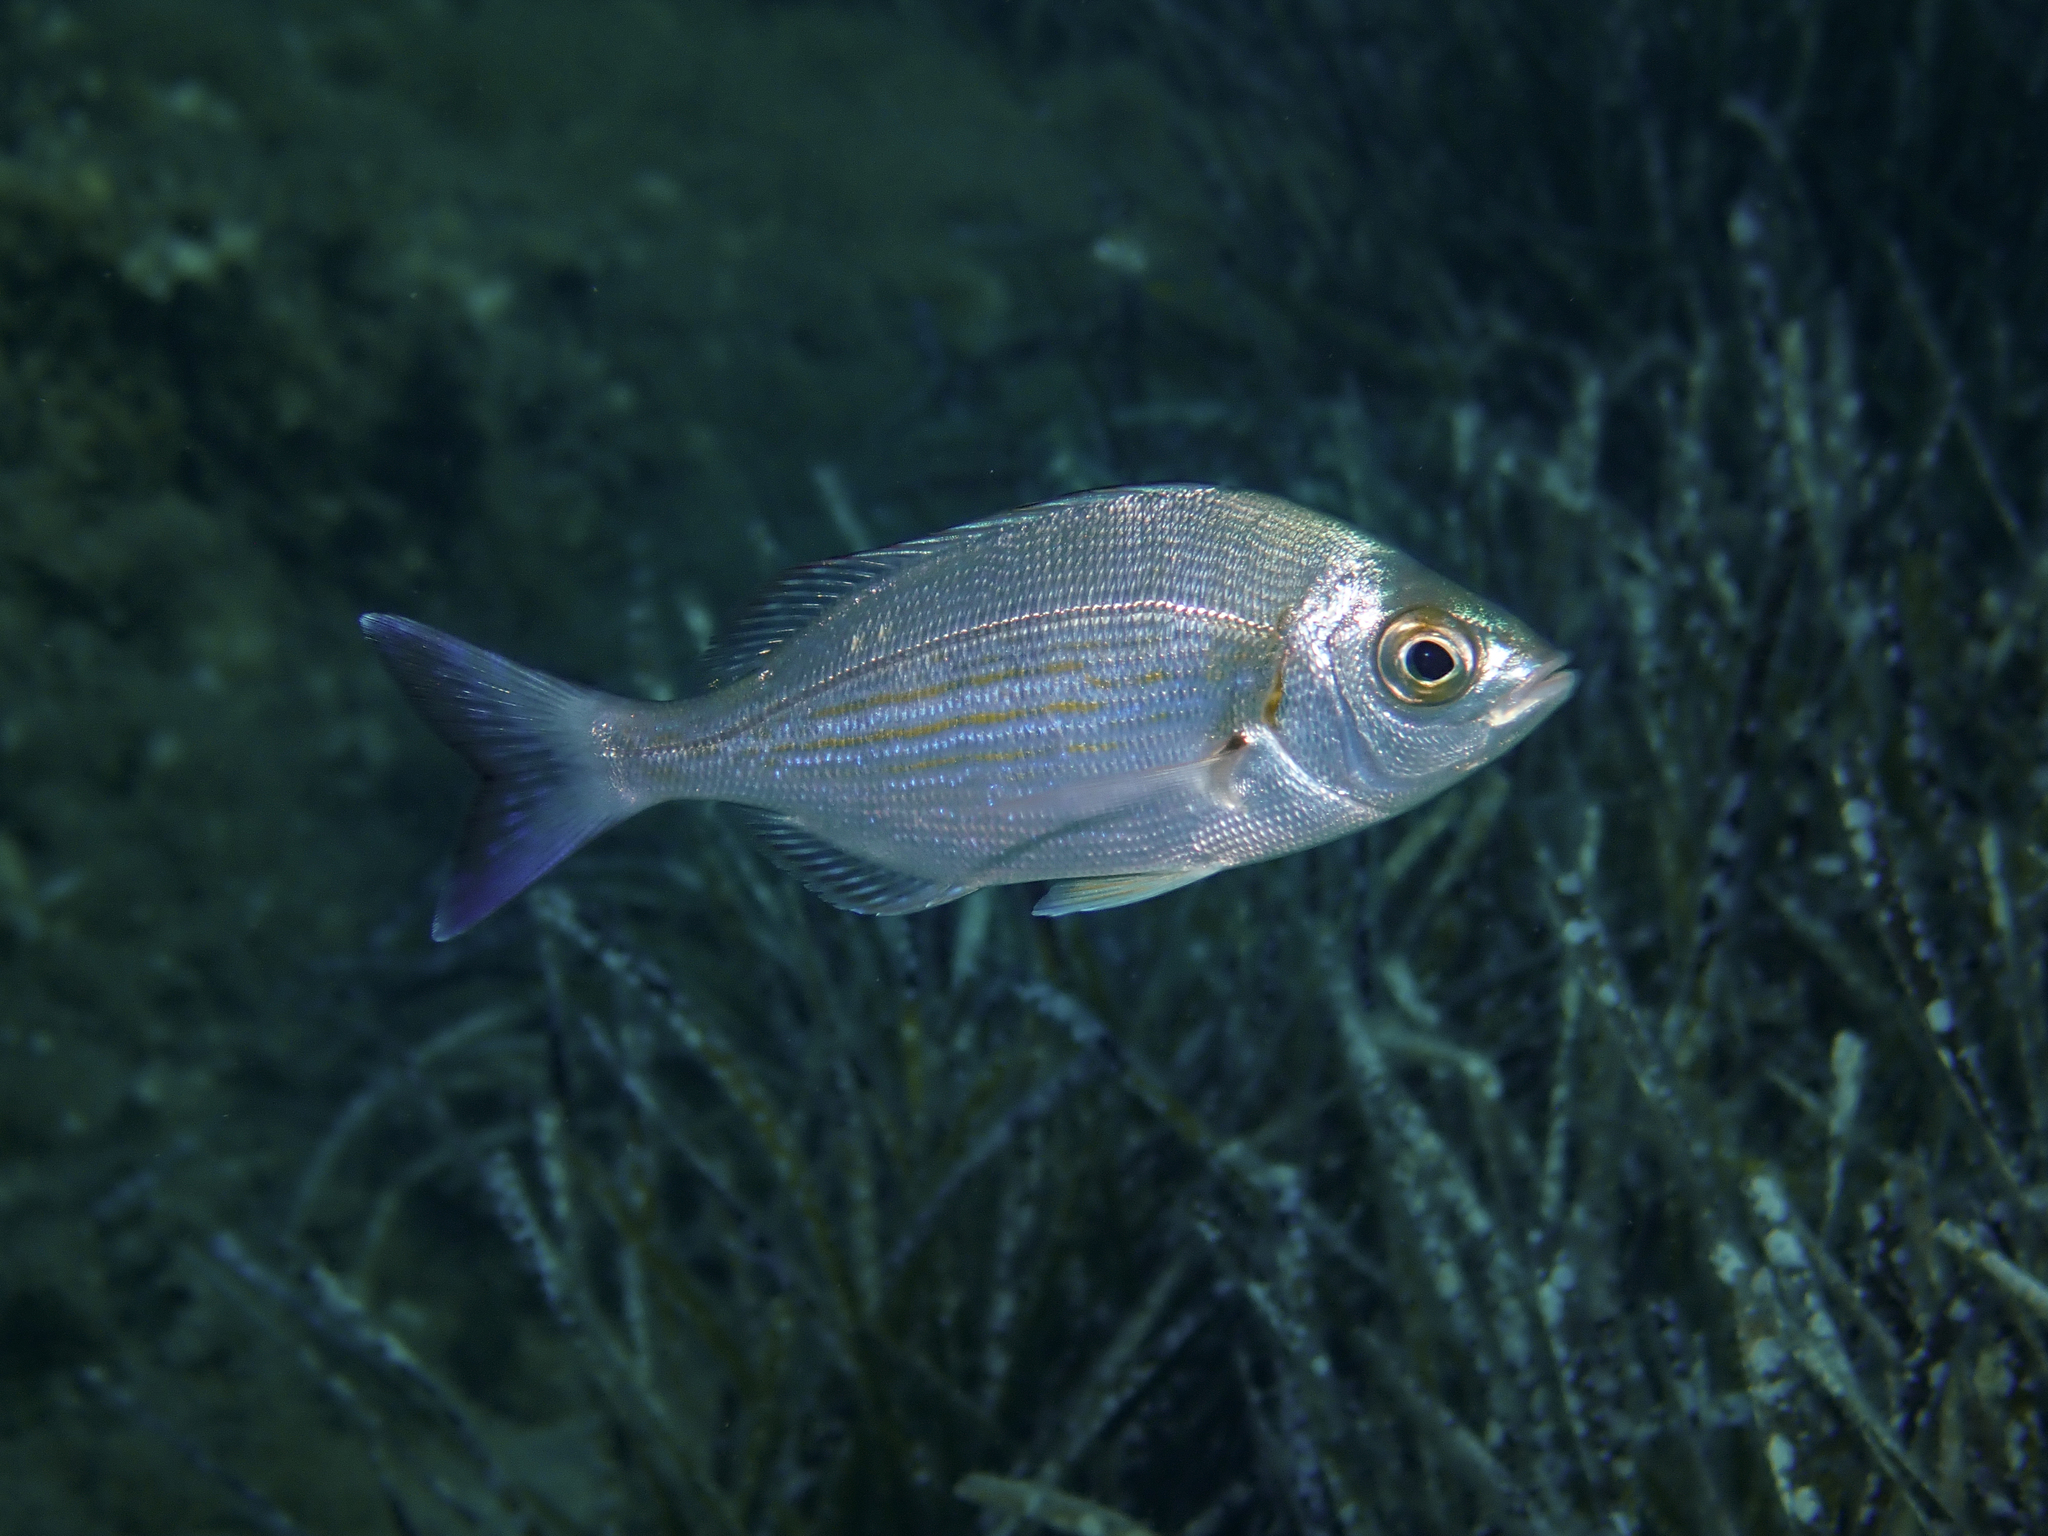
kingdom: Animalia
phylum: Chordata
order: Perciformes
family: Sparidae
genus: Spondyliosoma
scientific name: Spondyliosoma cantharus
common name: Black seabream
